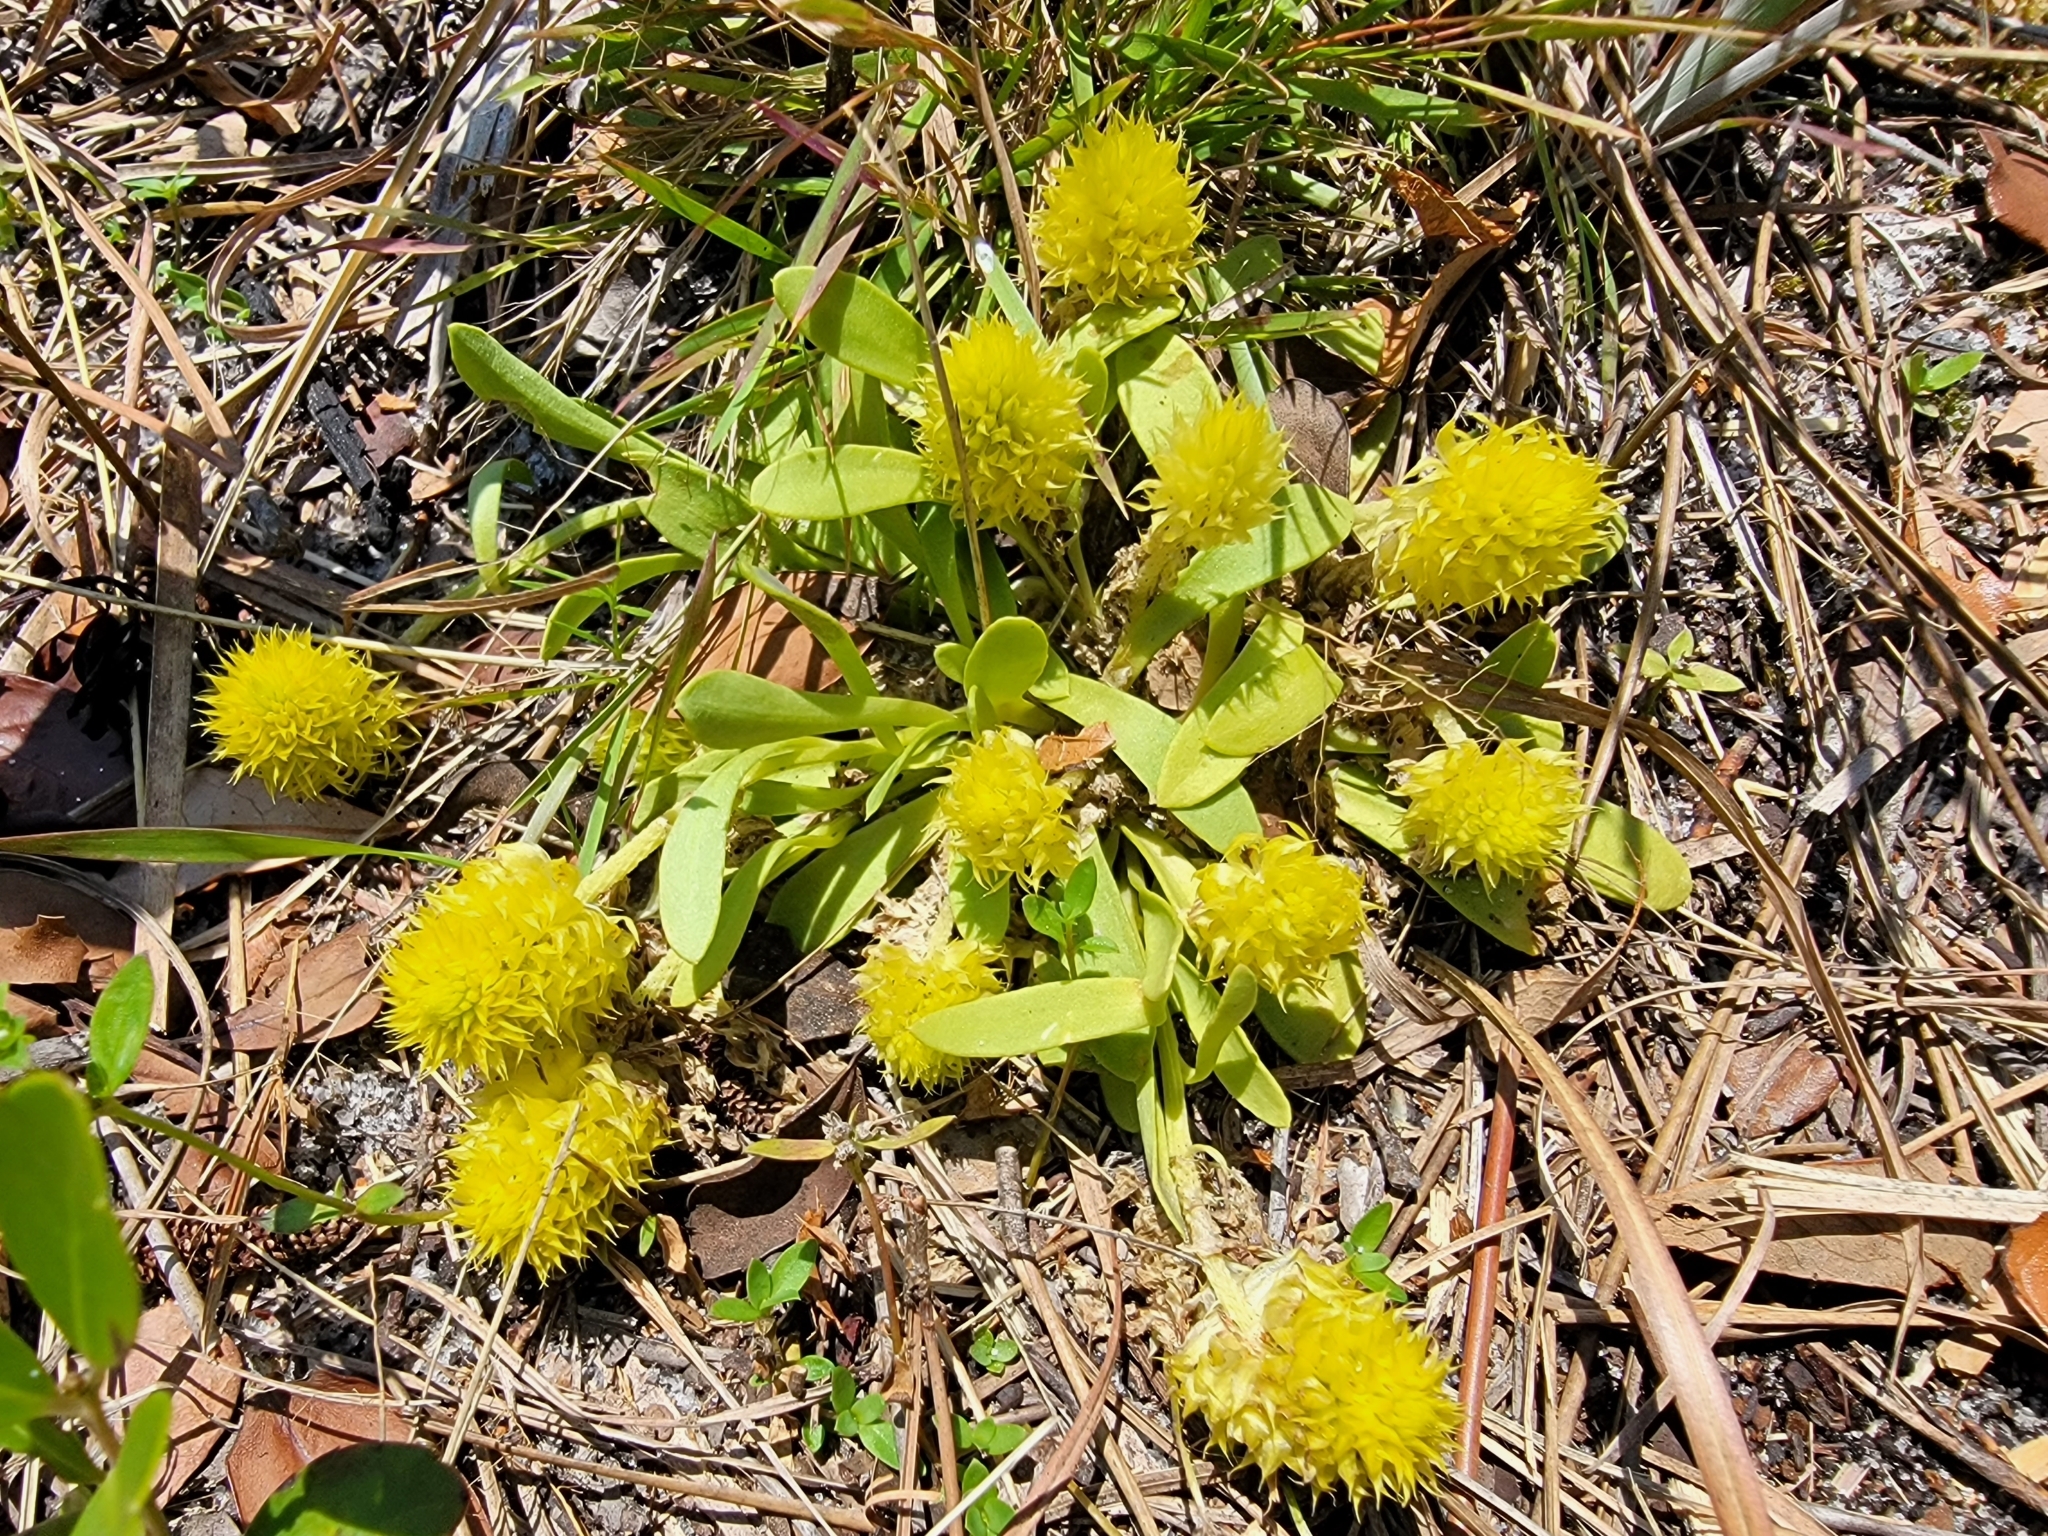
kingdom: Plantae
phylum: Tracheophyta
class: Magnoliopsida
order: Fabales
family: Polygalaceae
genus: Polygala
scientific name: Polygala nana
